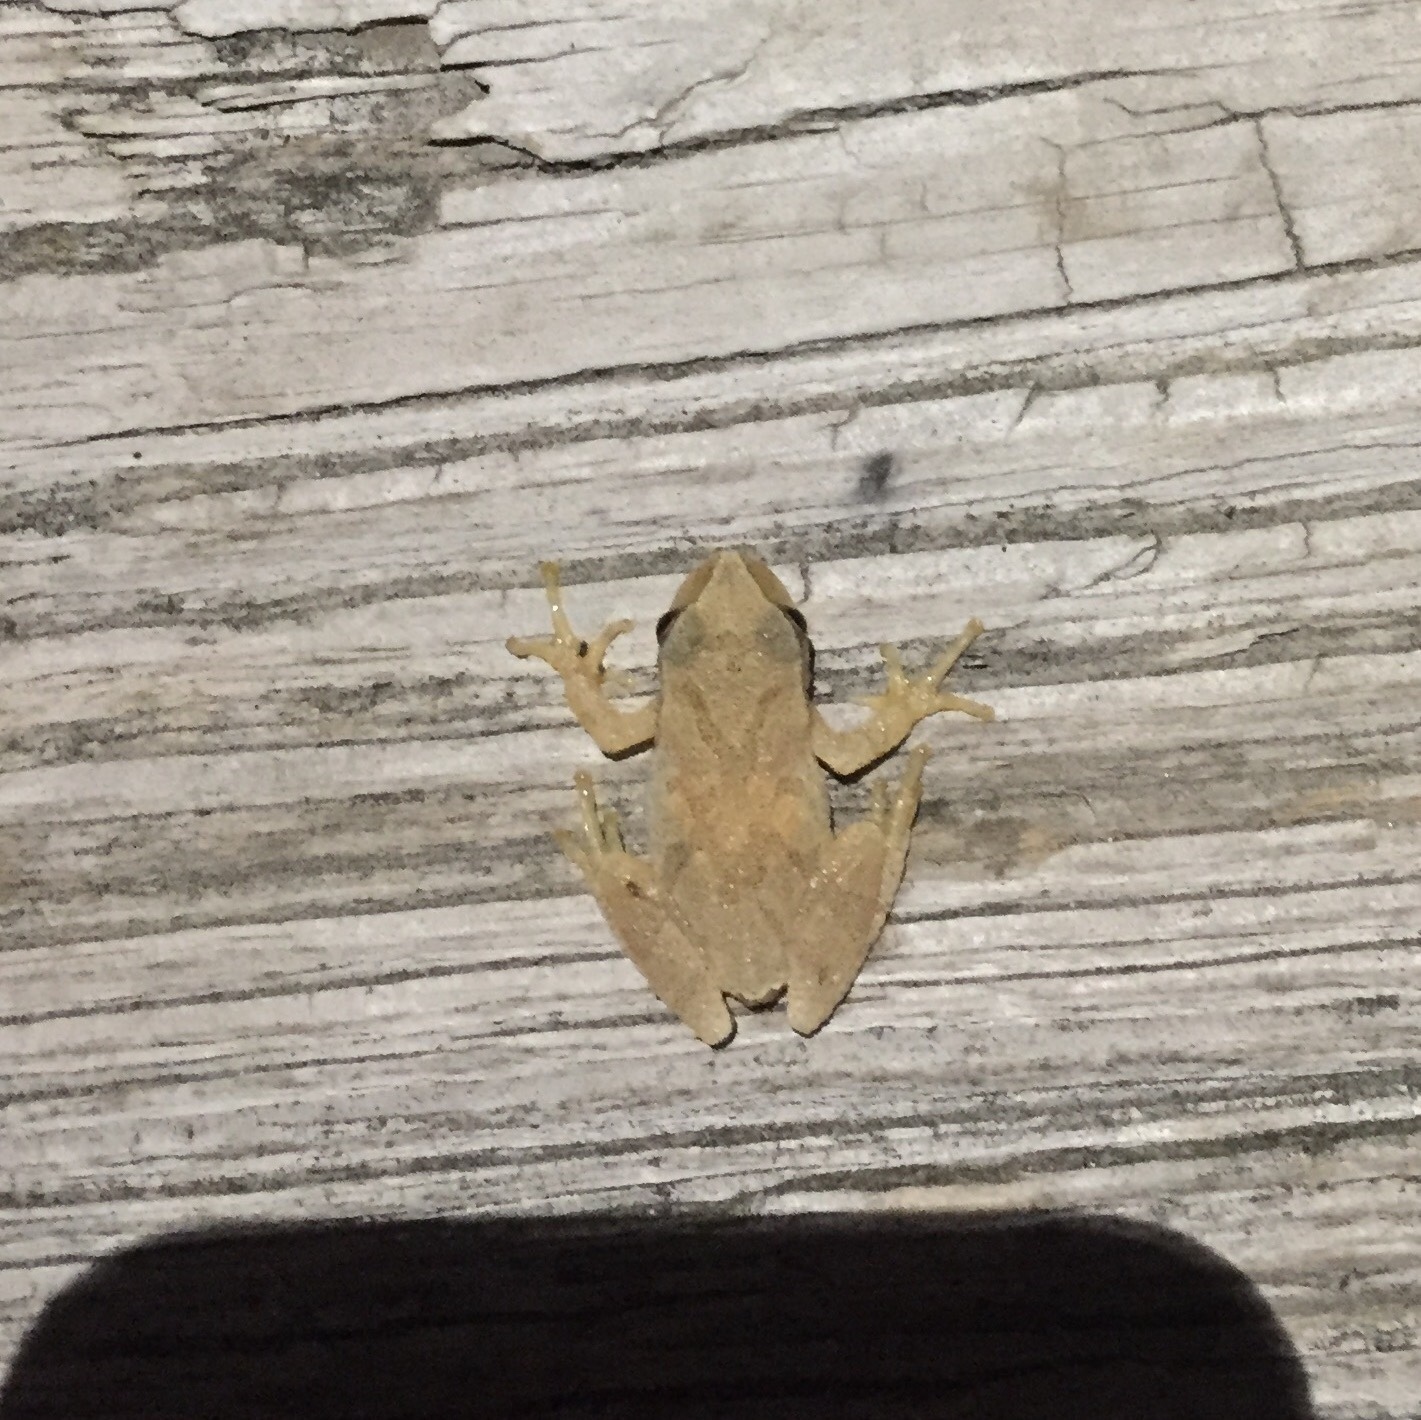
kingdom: Animalia
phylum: Chordata
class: Amphibia
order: Anura
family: Hylidae
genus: Pseudacris
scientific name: Pseudacris crucifer
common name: Spring peeper
